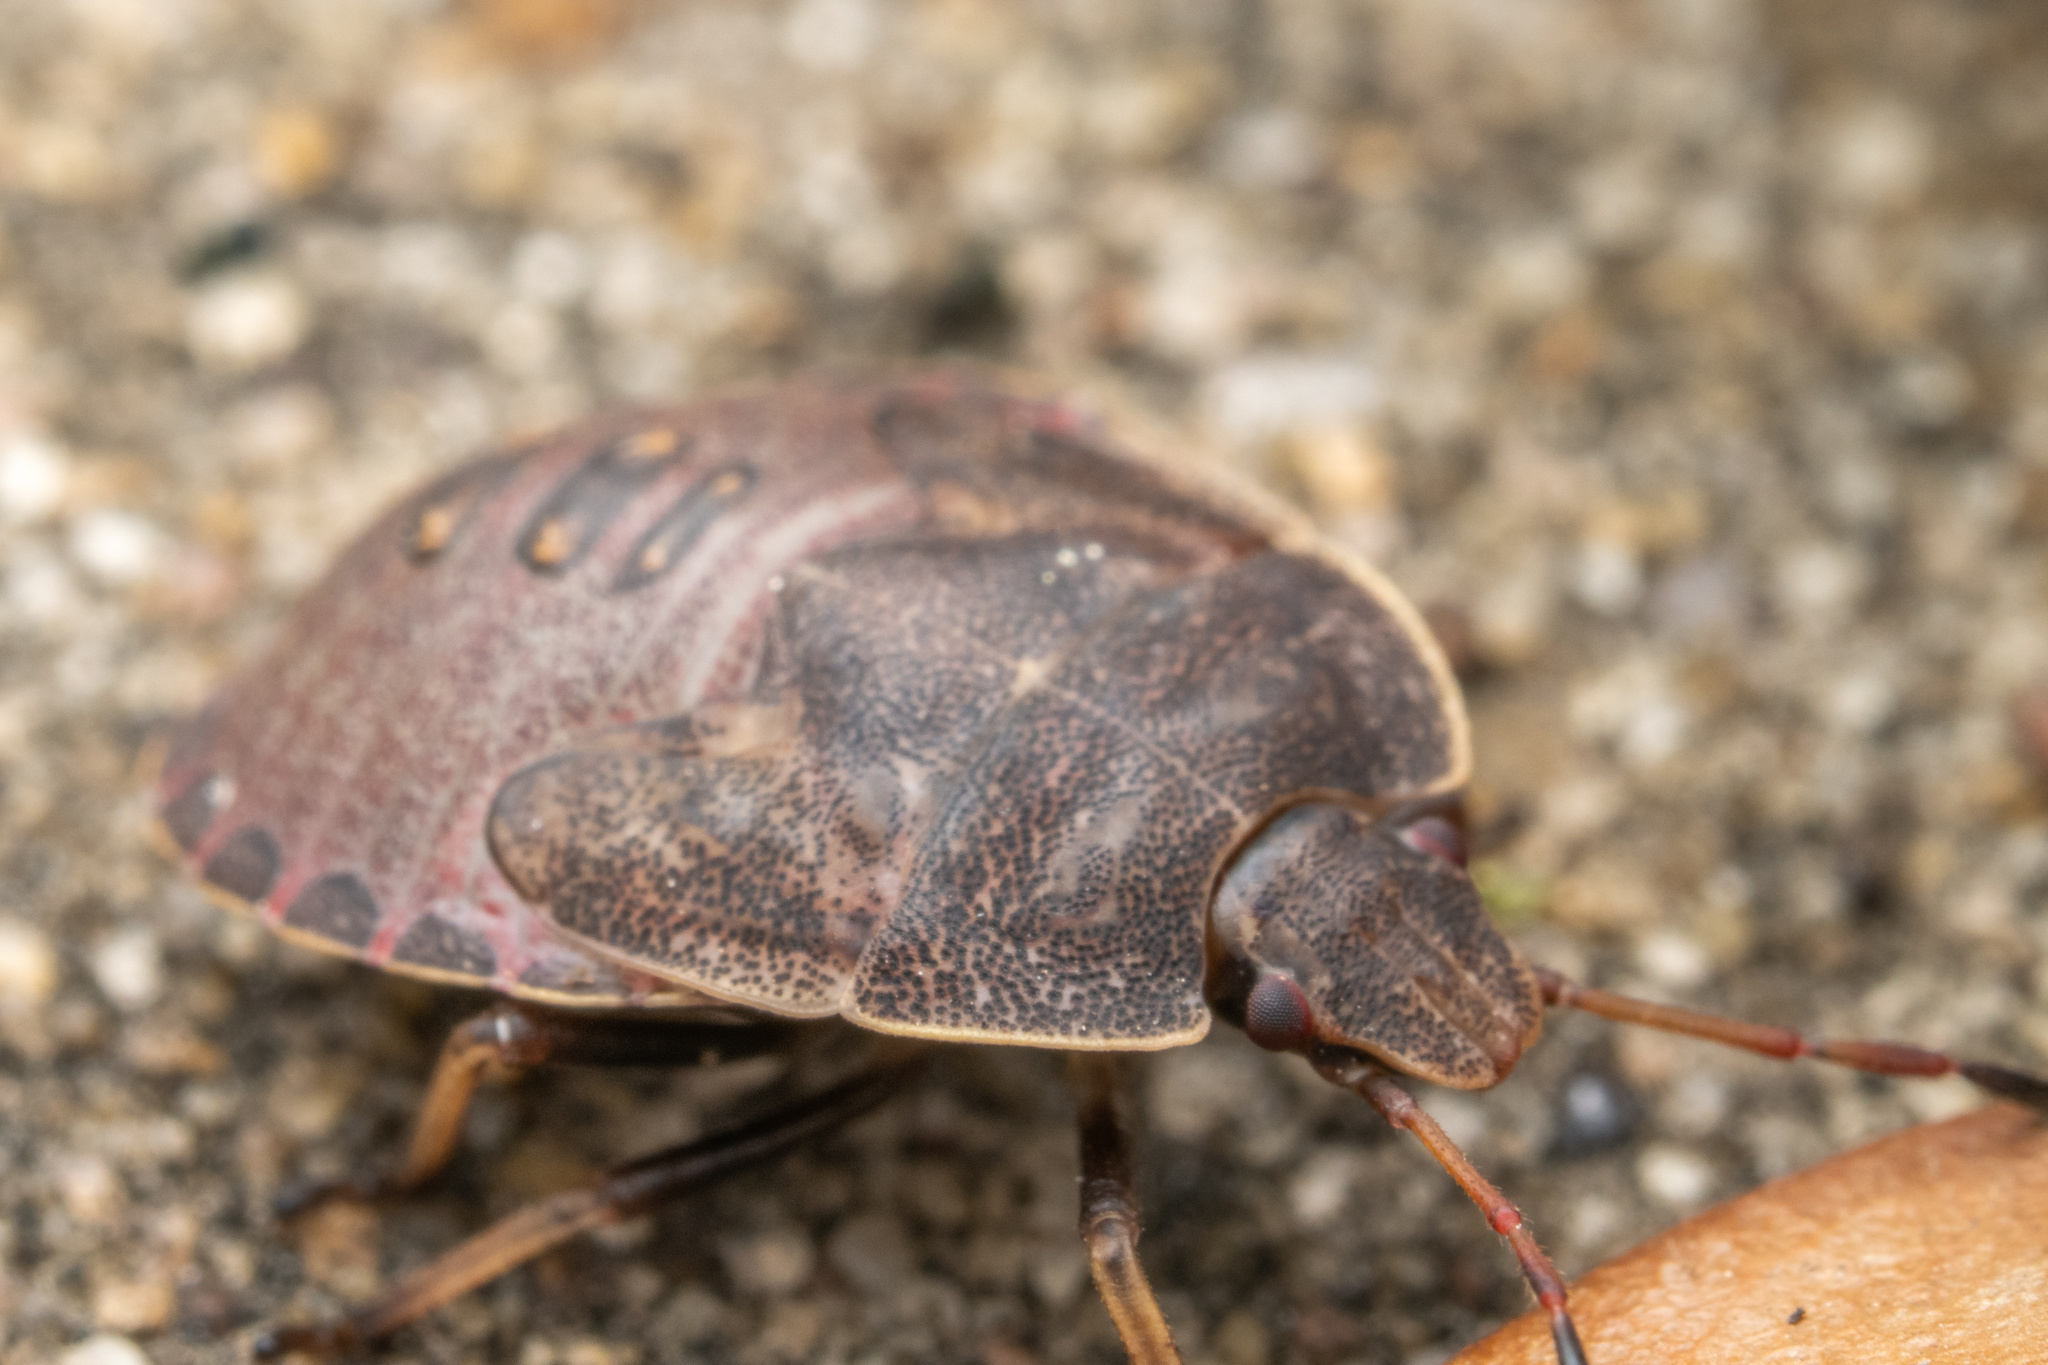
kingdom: Animalia
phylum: Arthropoda
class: Insecta
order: Hemiptera
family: Pentatomidae
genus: Menecles
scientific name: Menecles insertus
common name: Elf shoe stink bug
